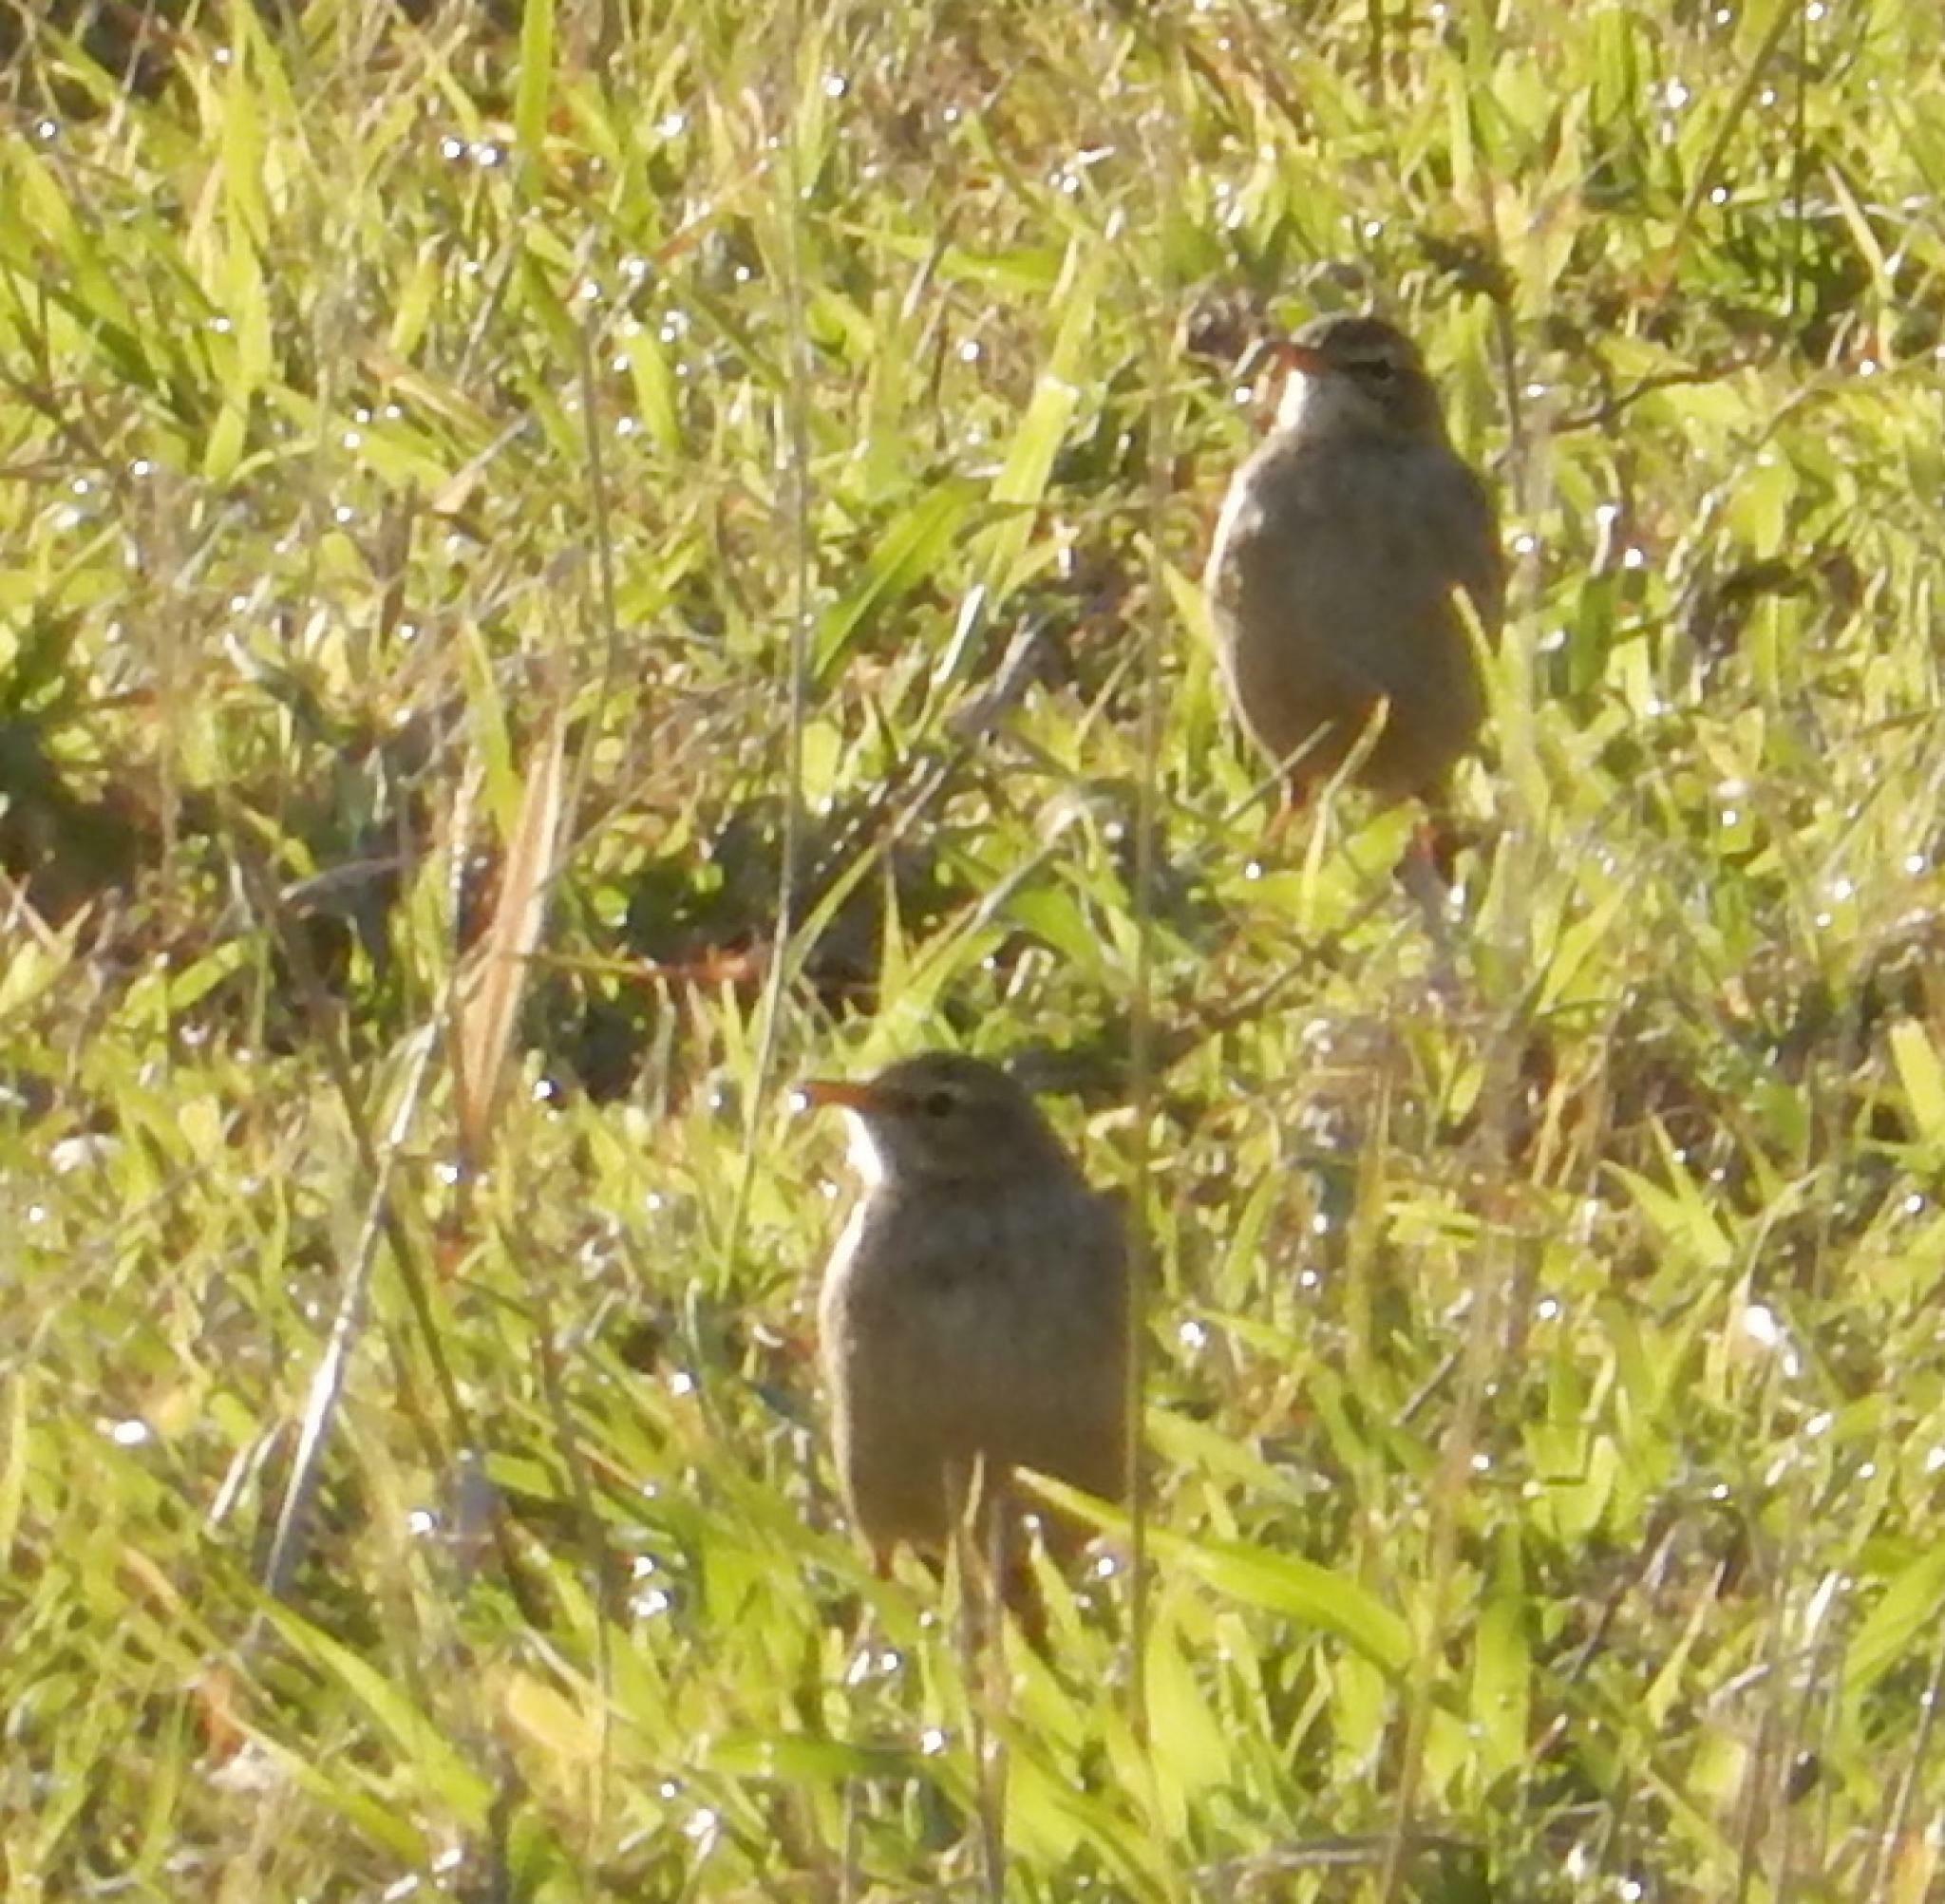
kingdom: Animalia
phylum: Chordata
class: Aves
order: Passeriformes
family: Motacillidae
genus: Anthus
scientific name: Anthus leucophrys
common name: Plain-backed pipit
